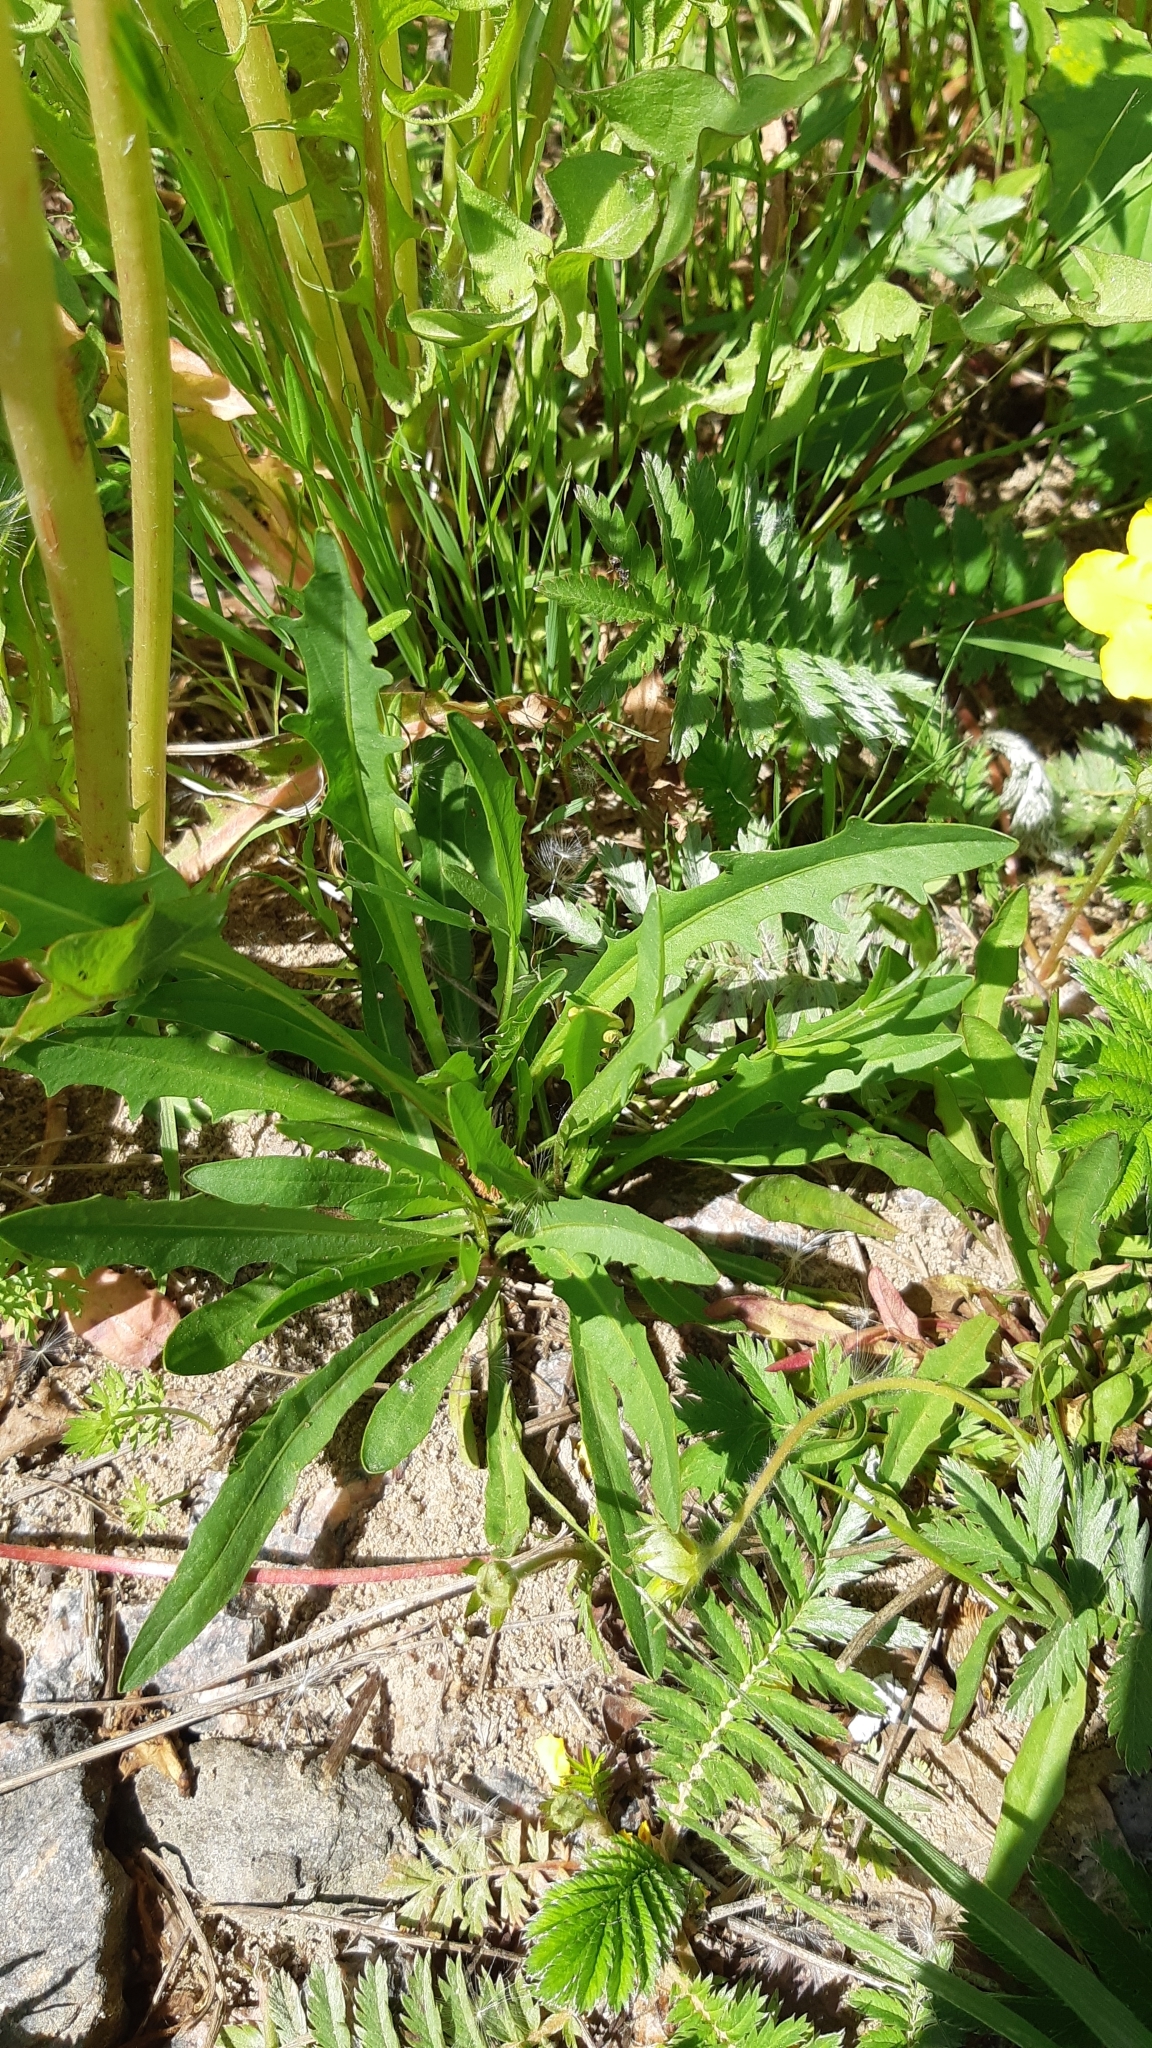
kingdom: Plantae
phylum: Tracheophyta
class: Magnoliopsida
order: Asterales
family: Asteraceae
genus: Scorzoneroides
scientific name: Scorzoneroides autumnalis
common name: Autumn hawkbit
